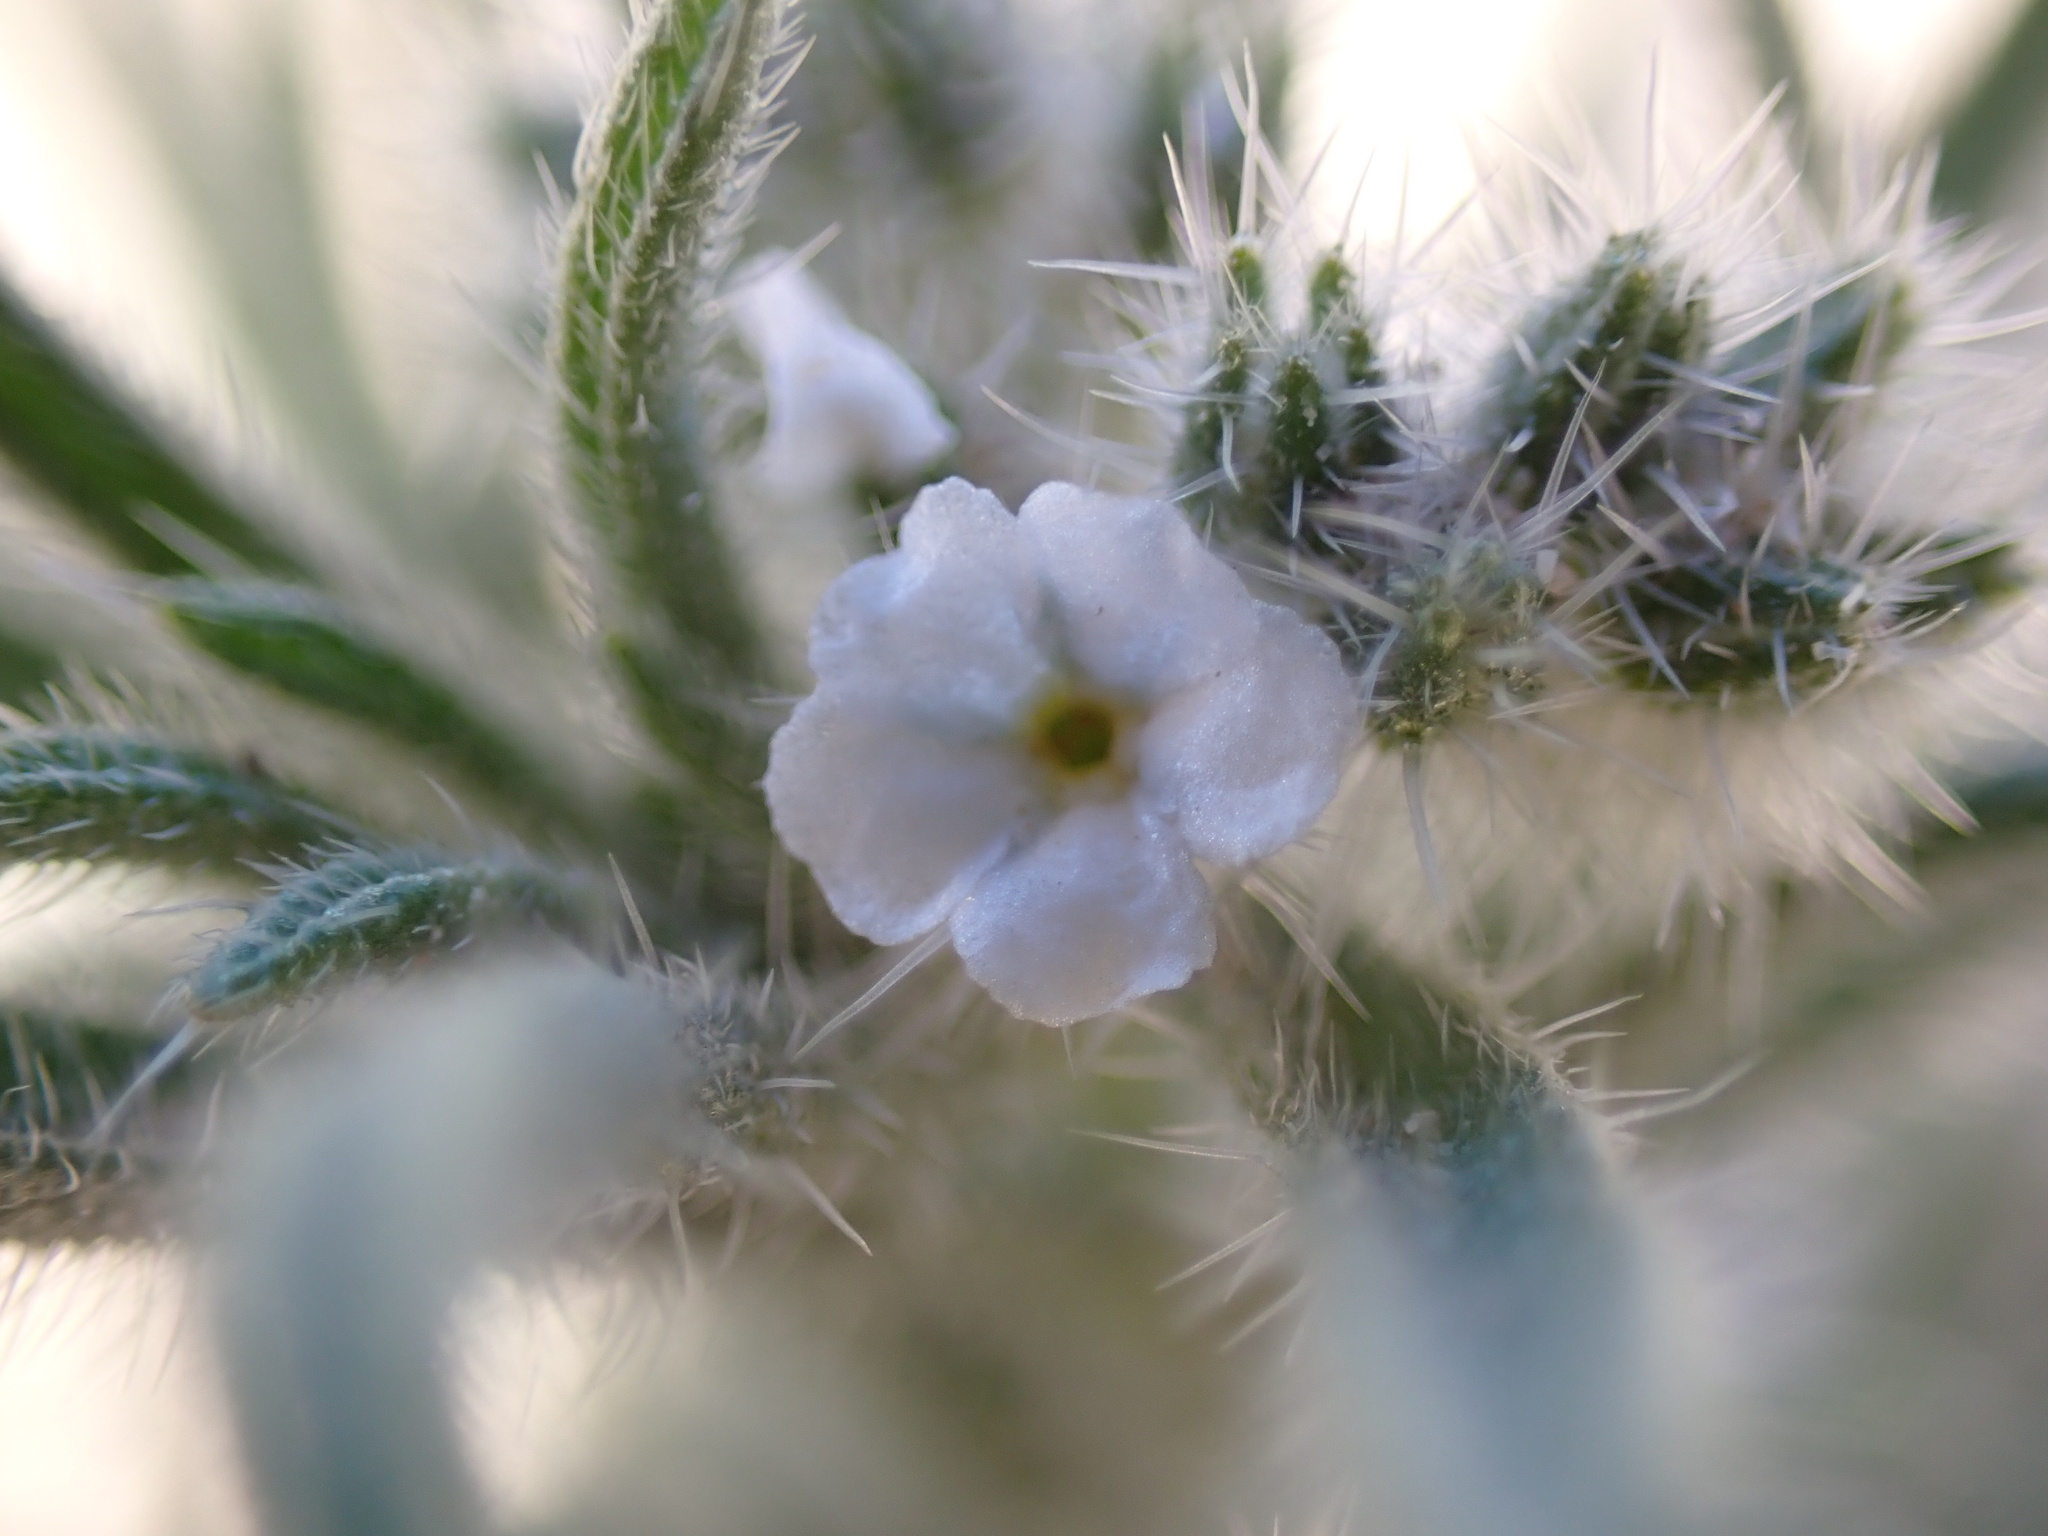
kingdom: Plantae
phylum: Tracheophyta
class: Magnoliopsida
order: Boraginales
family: Boraginaceae
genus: Johnstonella
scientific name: Johnstonella angustifolia
